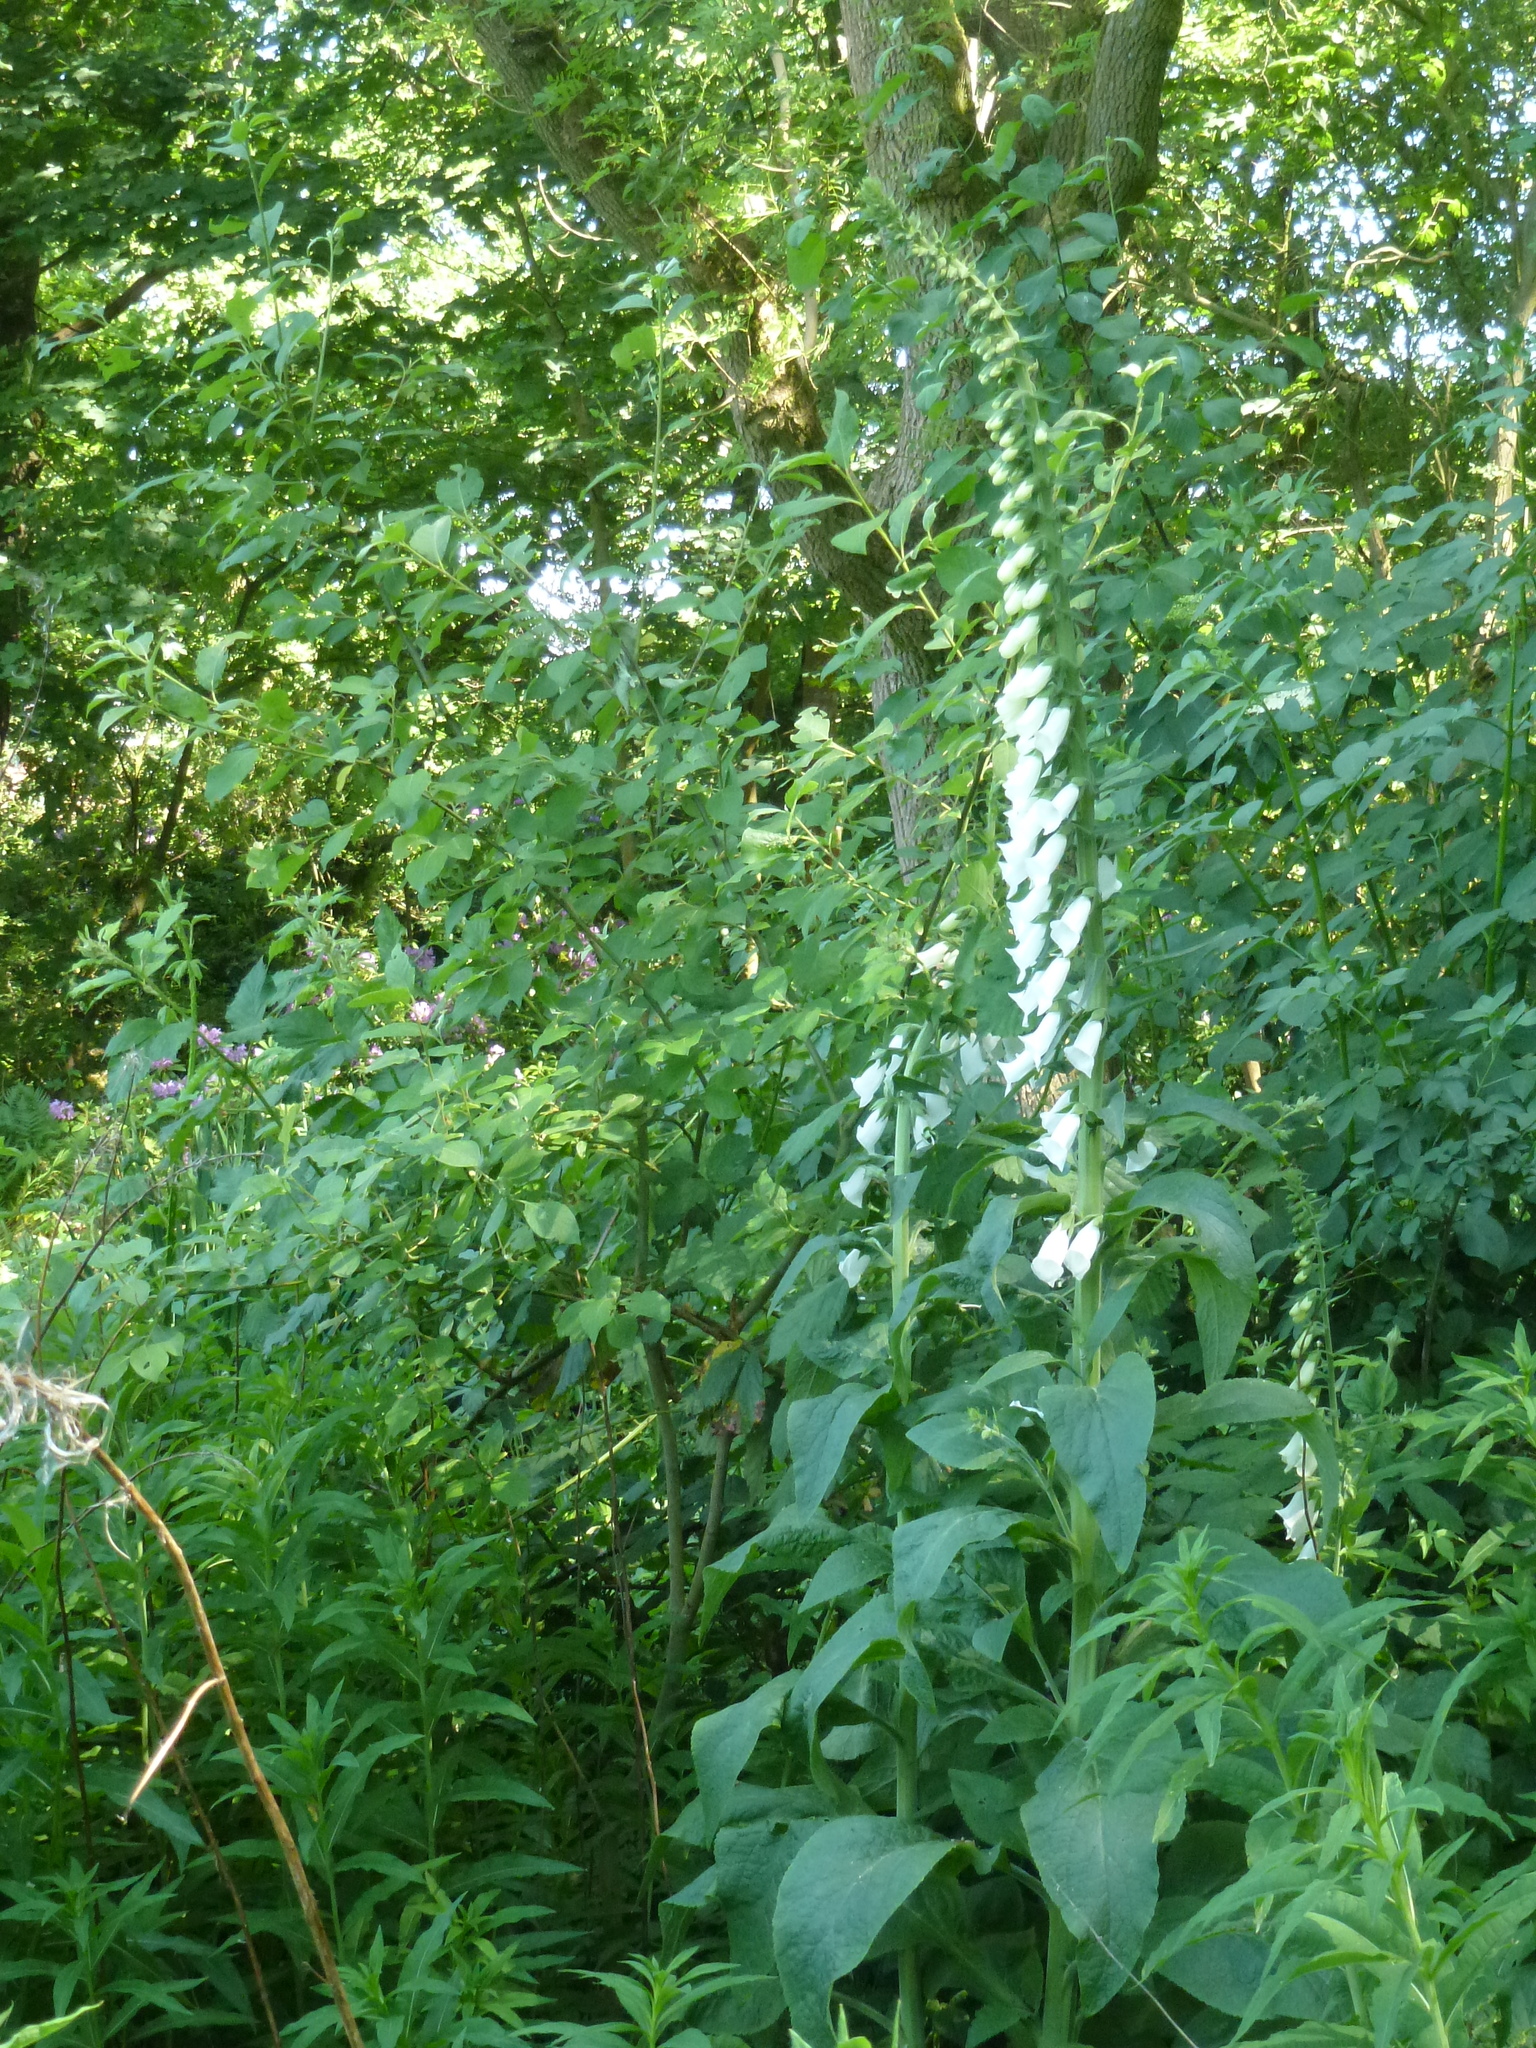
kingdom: Plantae
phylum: Tracheophyta
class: Magnoliopsida
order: Lamiales
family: Plantaginaceae
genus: Digitalis
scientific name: Digitalis purpurea
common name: Foxglove
